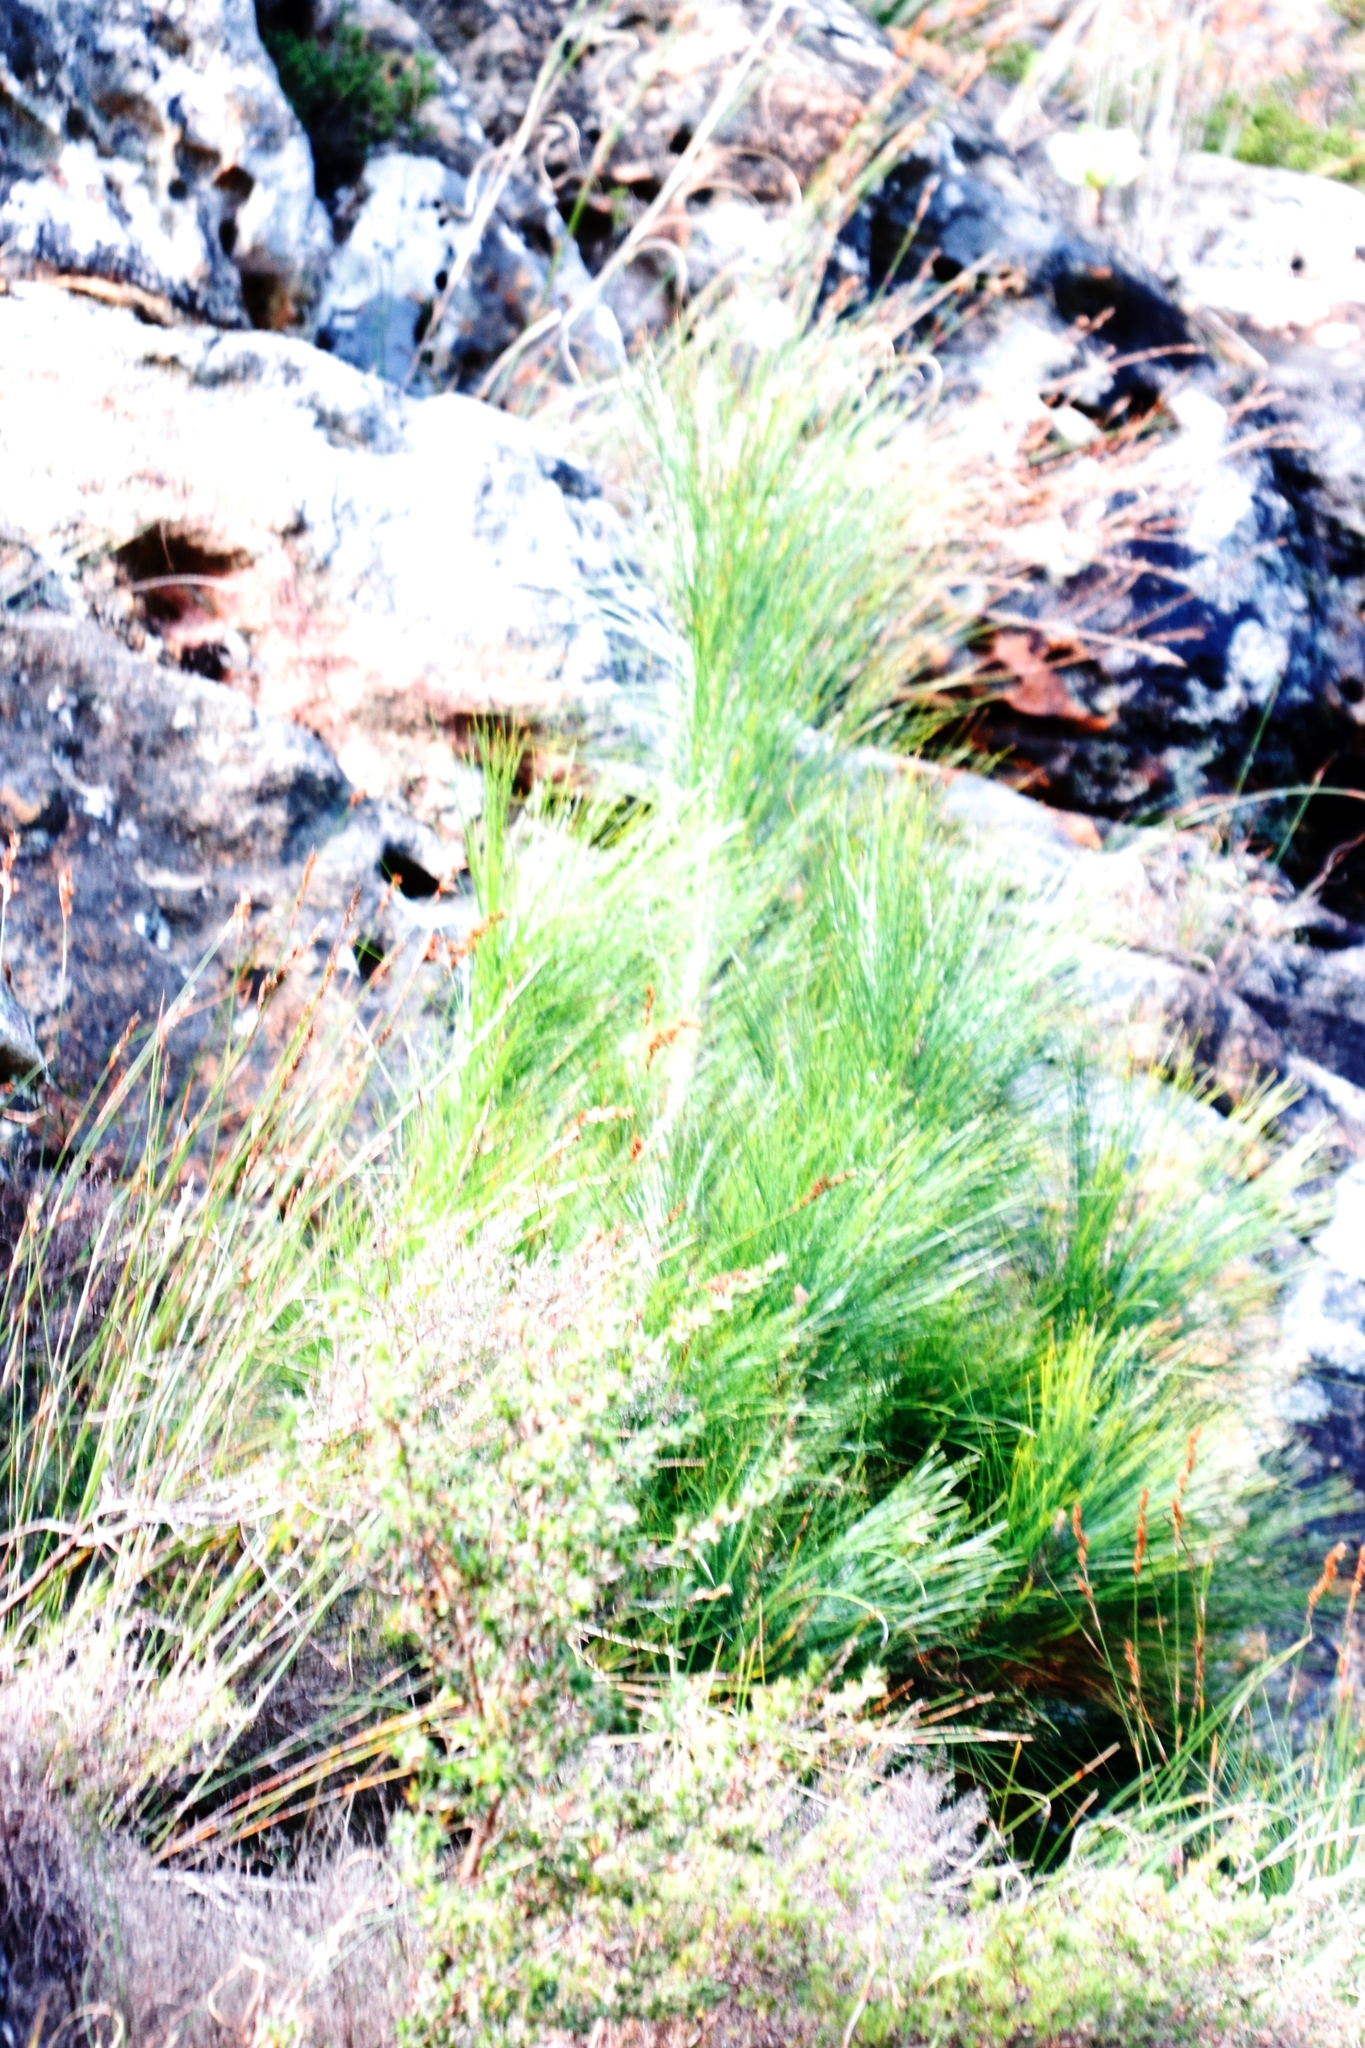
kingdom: Plantae
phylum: Tracheophyta
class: Pinopsida
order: Pinales
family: Pinaceae
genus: Pinus
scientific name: Pinus canariensis
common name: Canary islands pine
